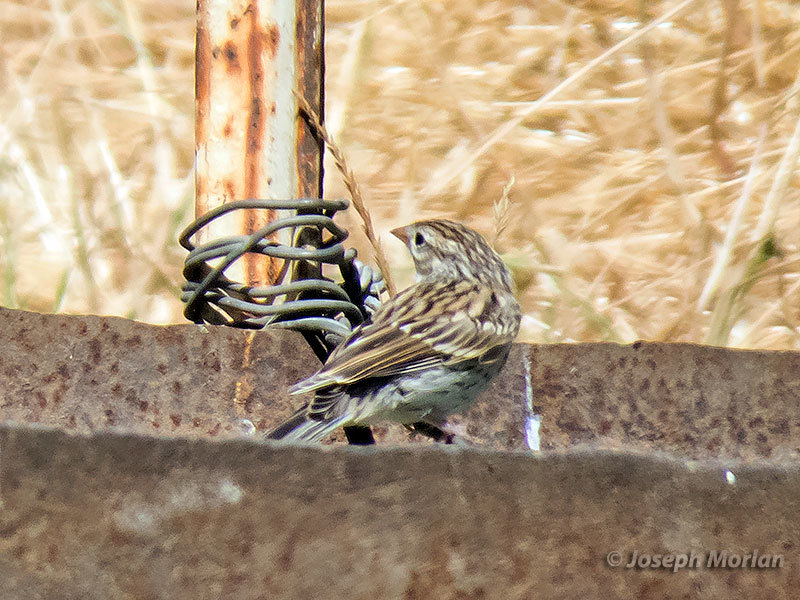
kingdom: Animalia
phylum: Chordata
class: Aves
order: Passeriformes
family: Passerellidae
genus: Spizella
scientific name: Spizella passerina
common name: Chipping sparrow
